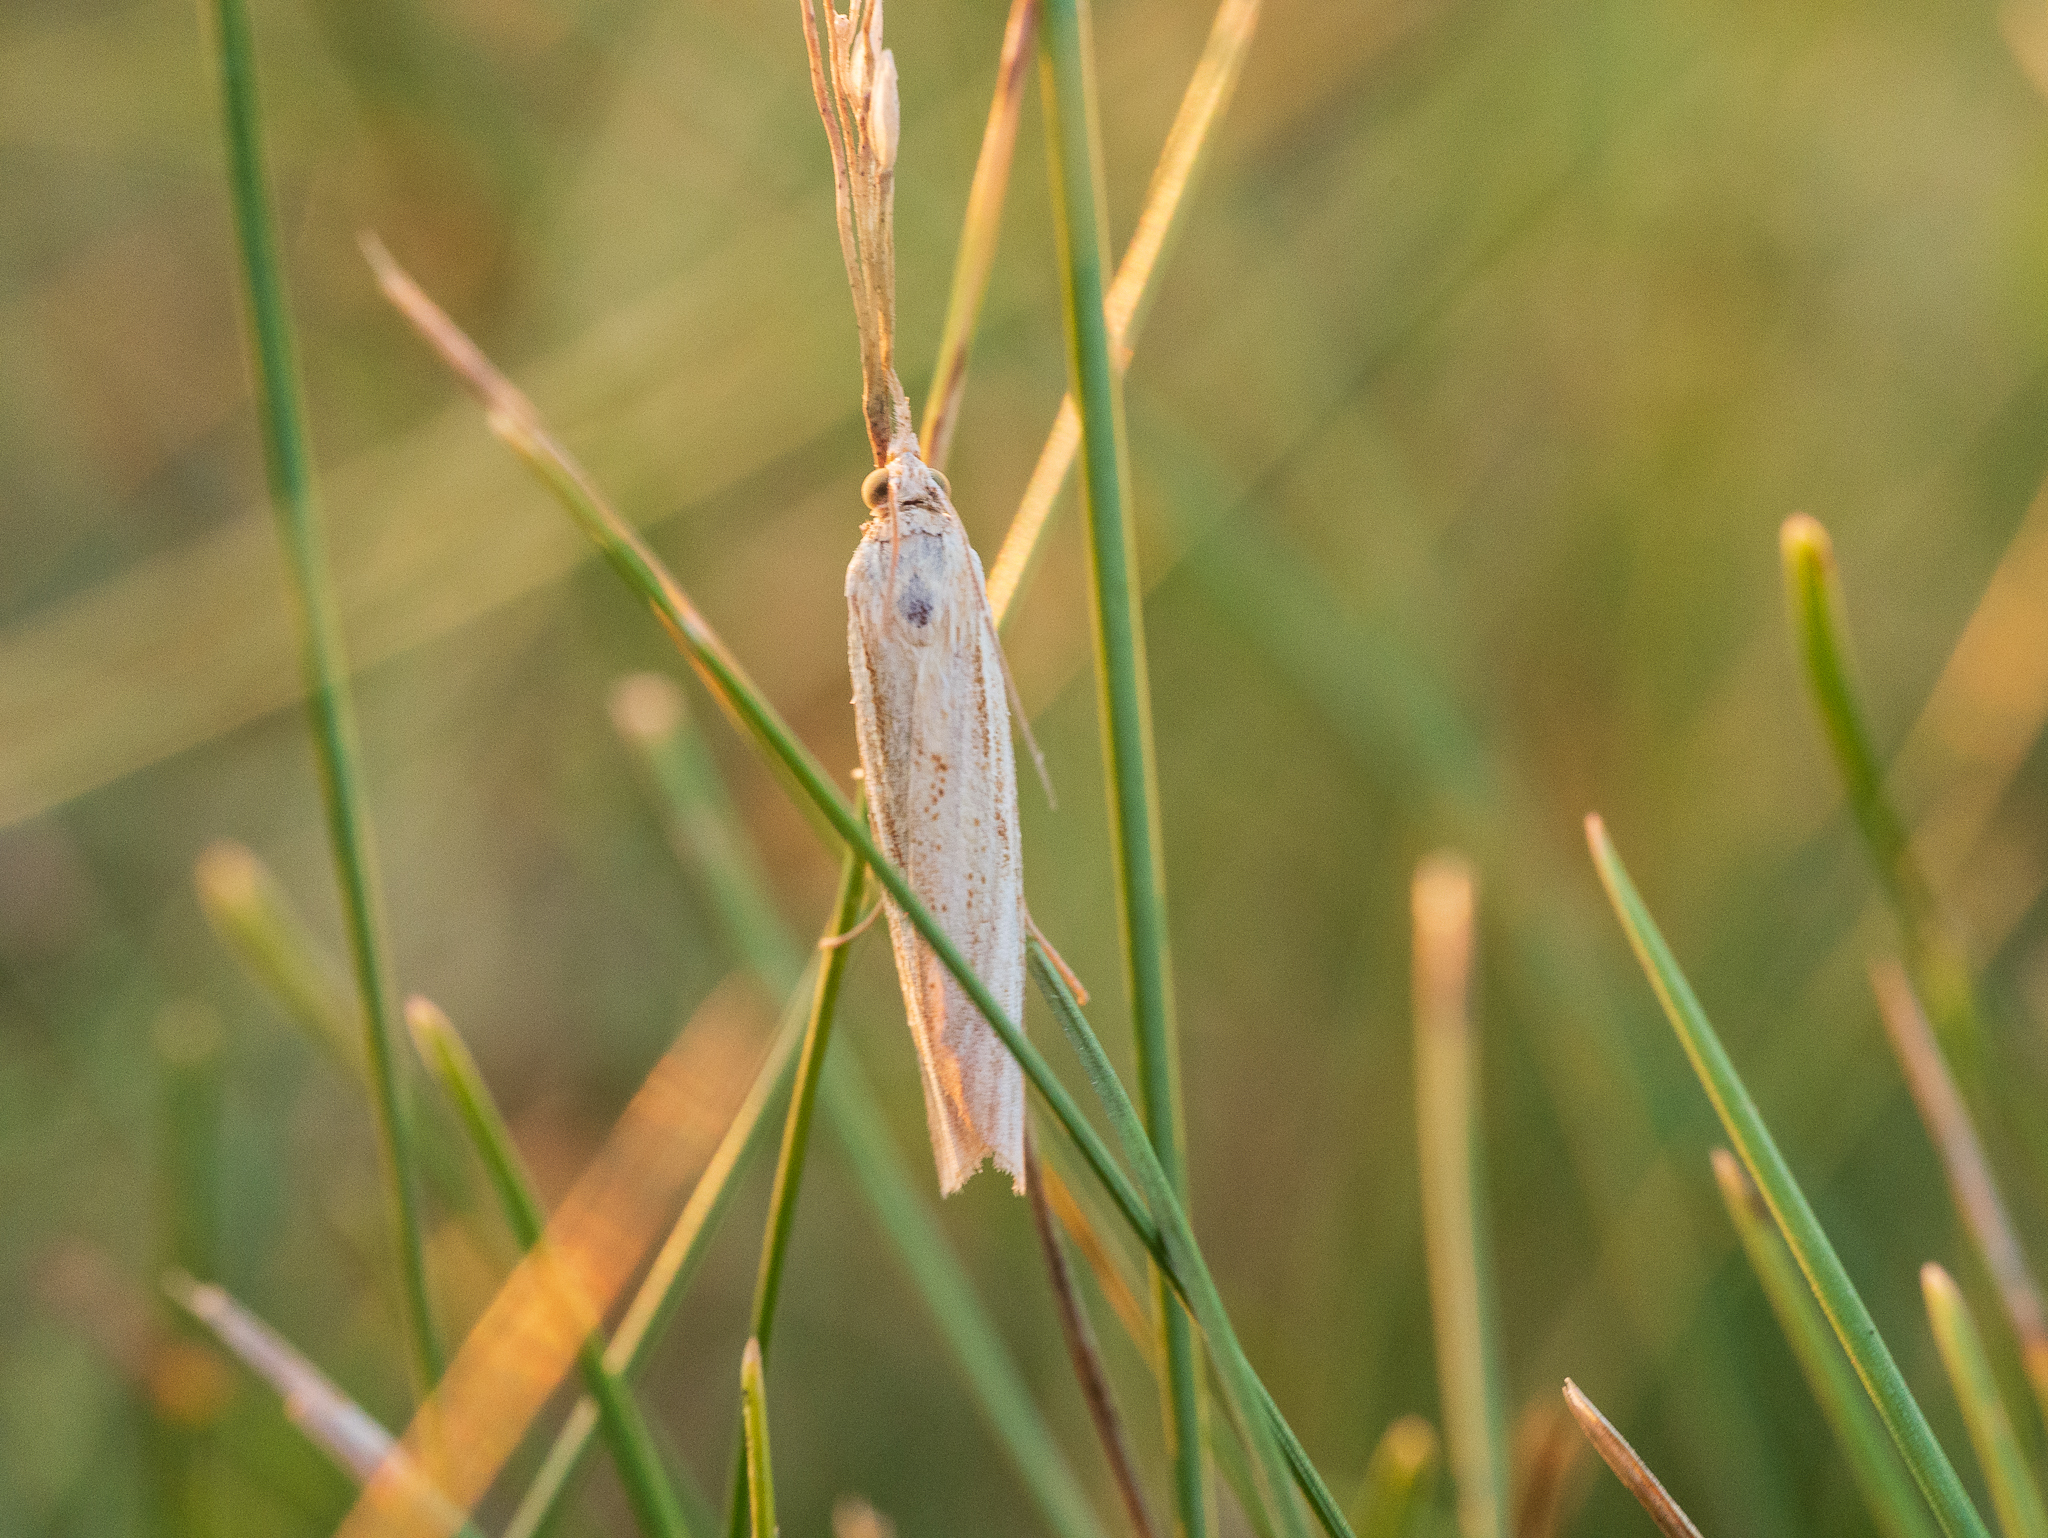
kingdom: Animalia
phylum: Arthropoda
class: Insecta
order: Lepidoptera
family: Crambidae
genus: Agriphila
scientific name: Agriphila tristellus
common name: Common grass-veneer
